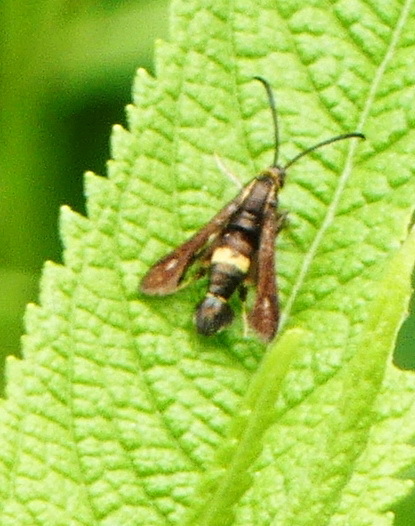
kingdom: Animalia
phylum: Arthropoda
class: Insecta
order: Lepidoptera
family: Sesiidae
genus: Carmenta
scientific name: Carmenta pyralidiformis
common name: Boneset borer moth
